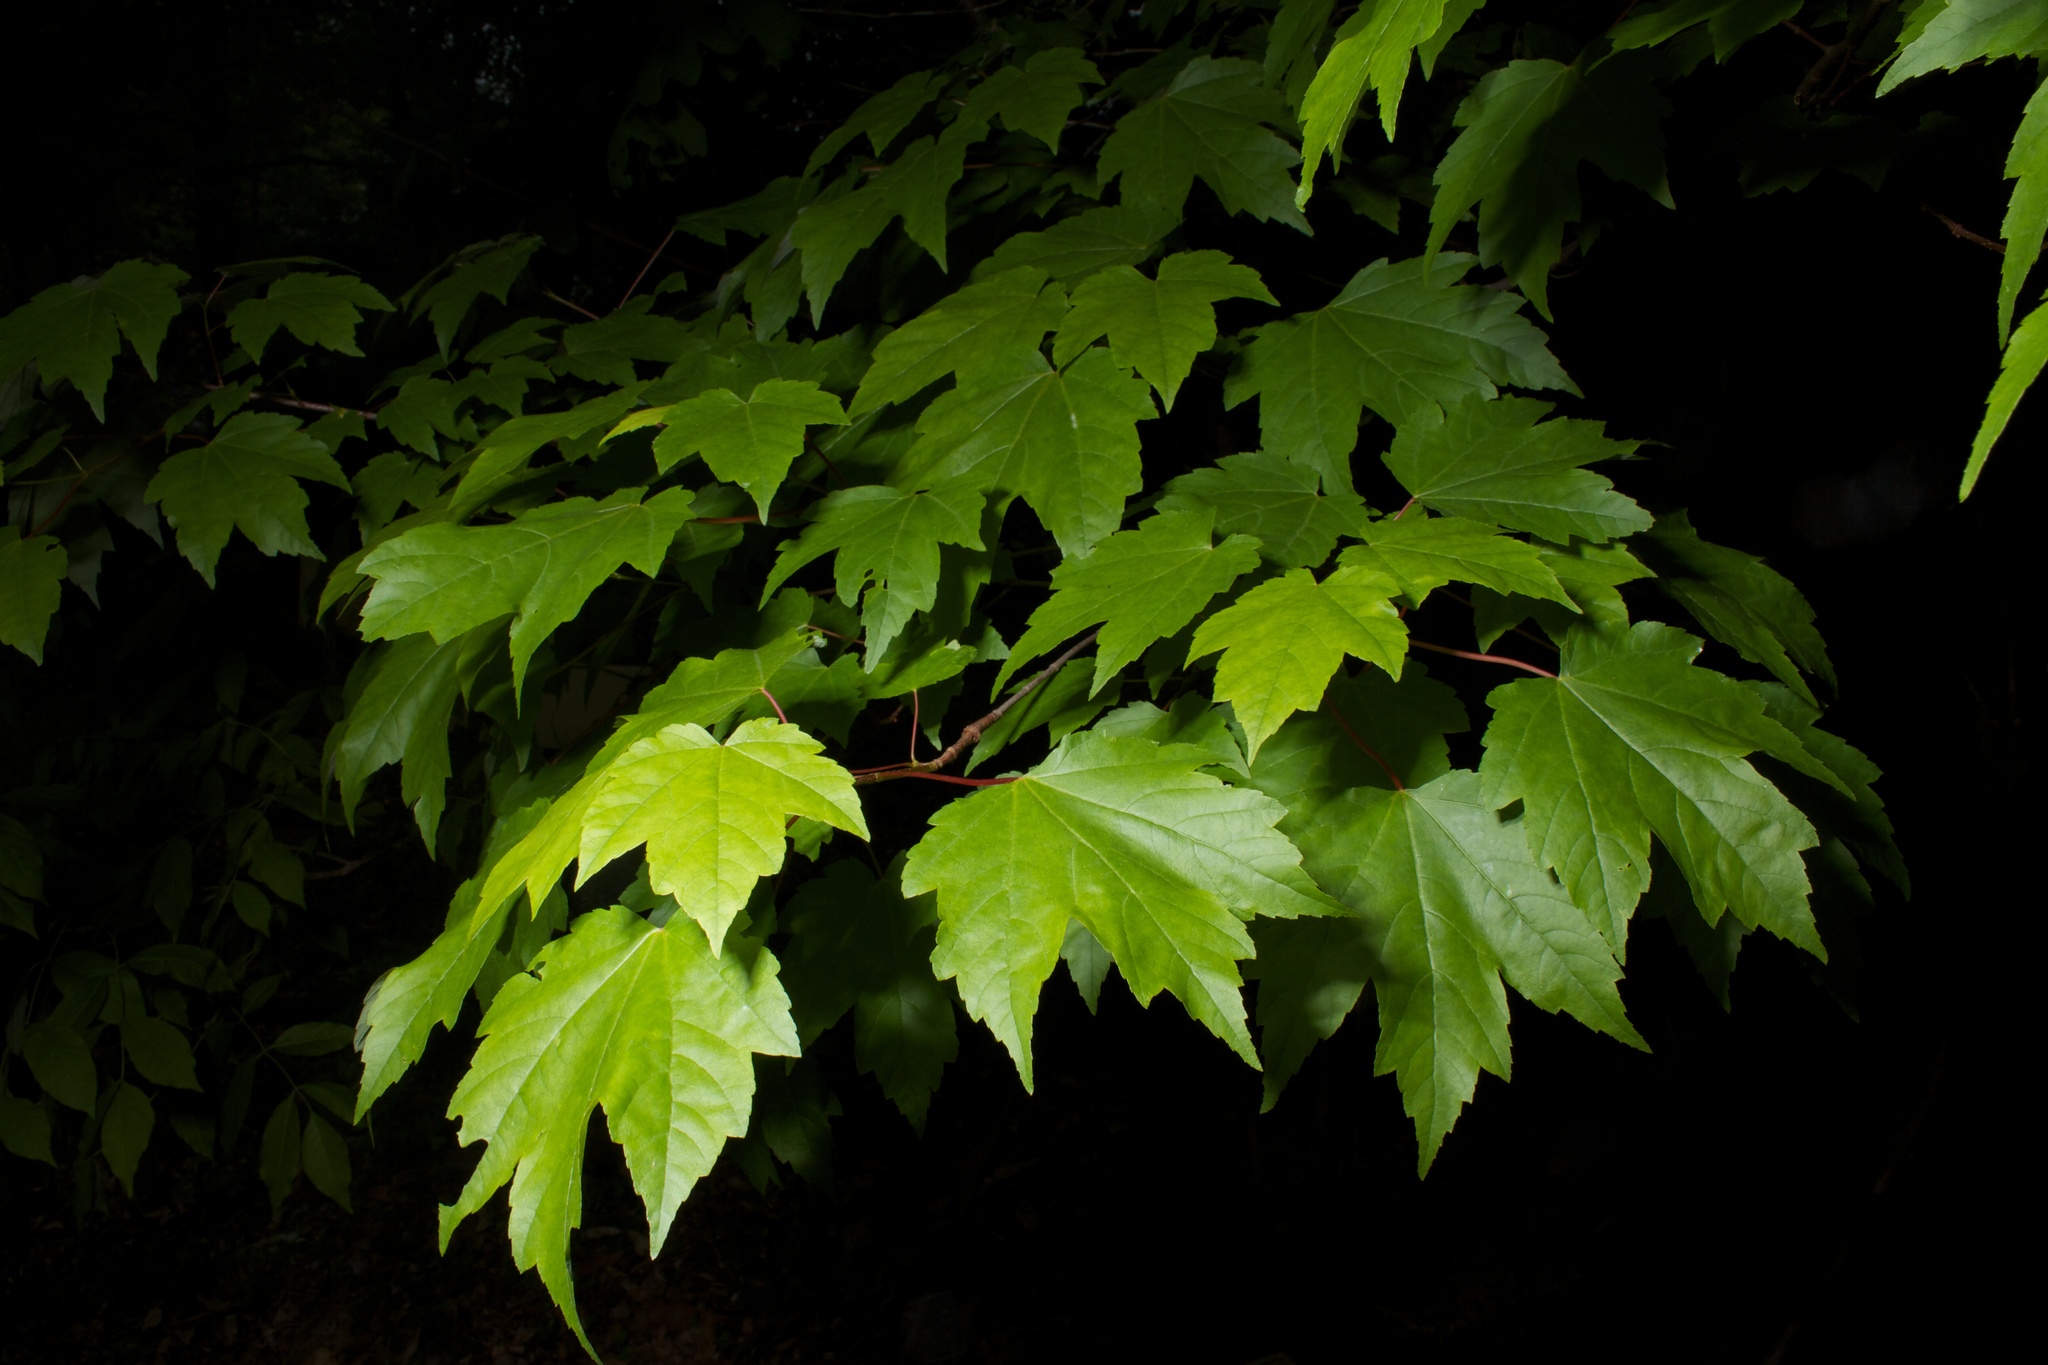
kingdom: Plantae
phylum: Tracheophyta
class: Magnoliopsida
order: Sapindales
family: Sapindaceae
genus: Acer
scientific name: Acer rubrum
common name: Red maple
